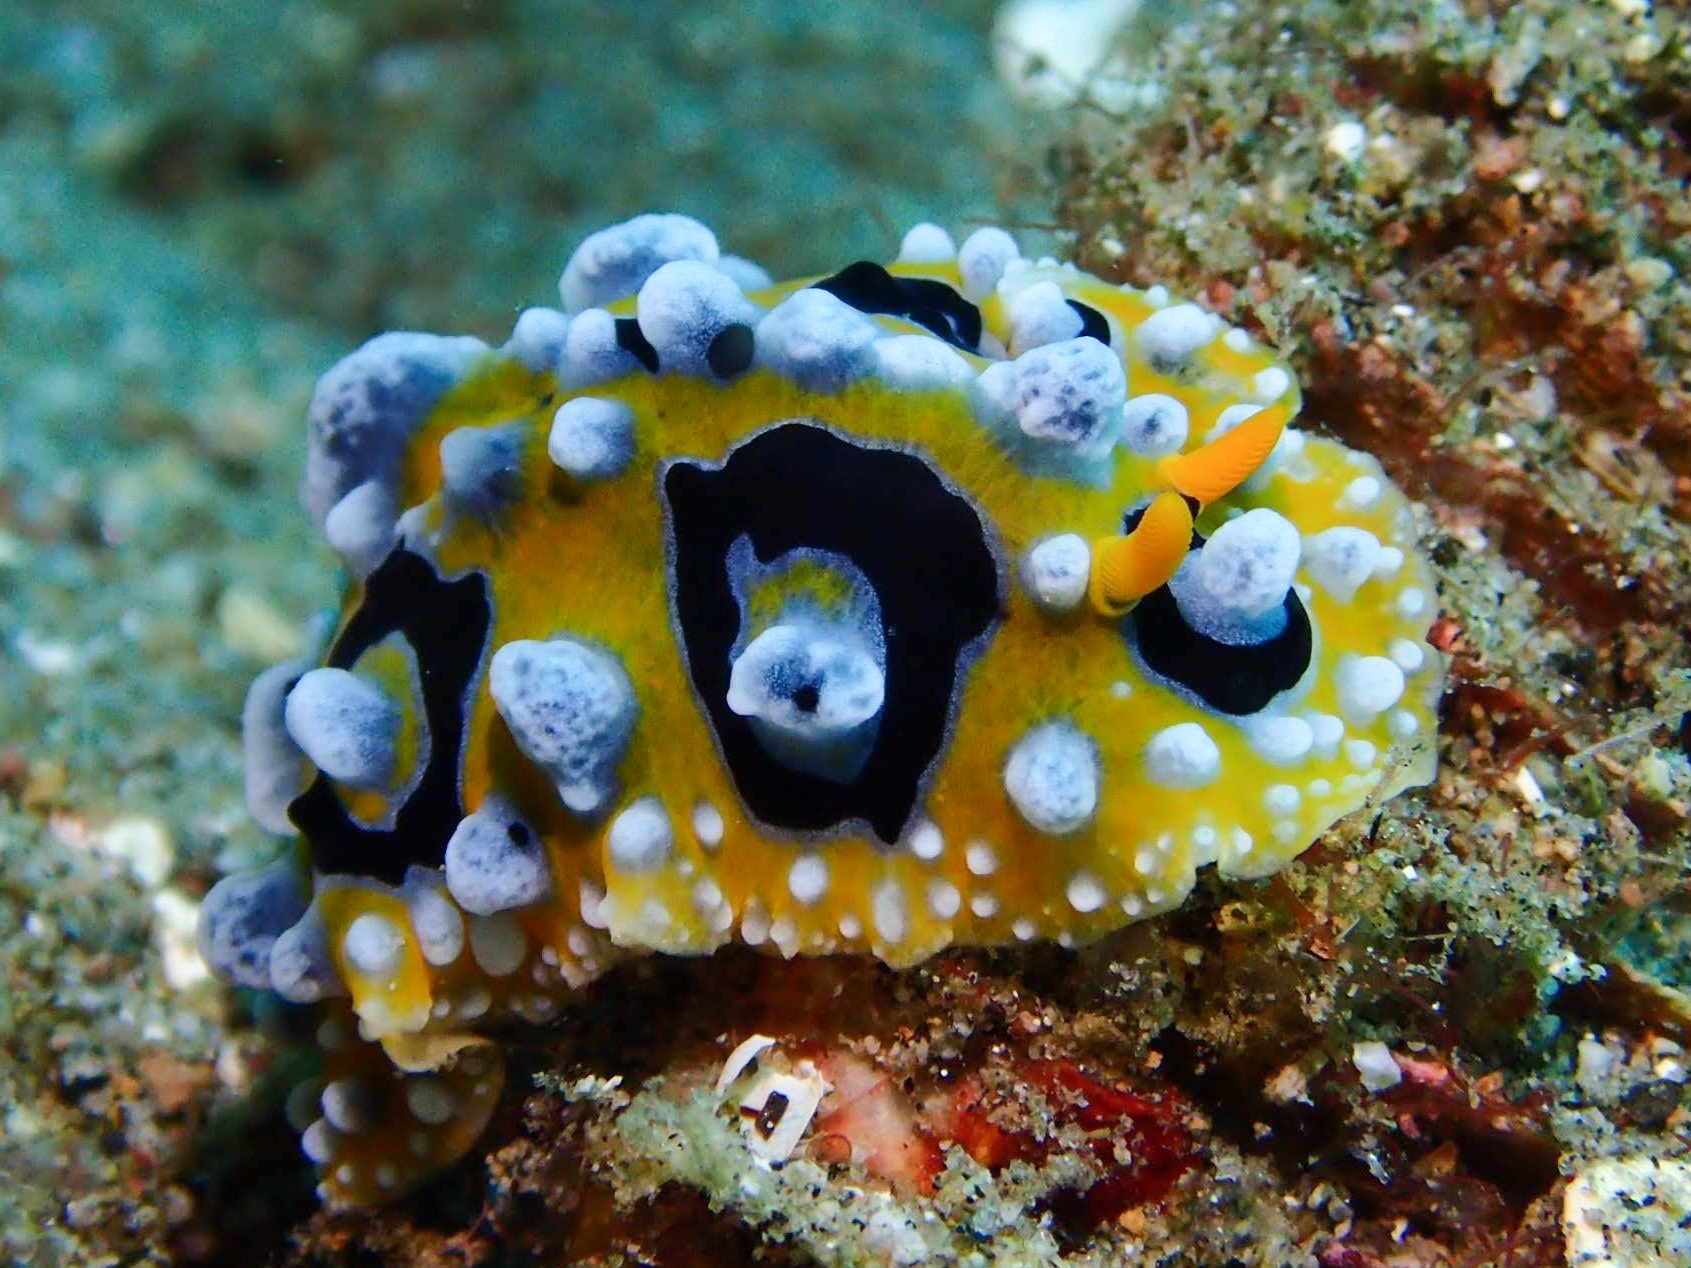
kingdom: Animalia
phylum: Mollusca
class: Gastropoda
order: Nudibranchia
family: Phyllidiidae
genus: Phyllidia
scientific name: Phyllidia ocellata
